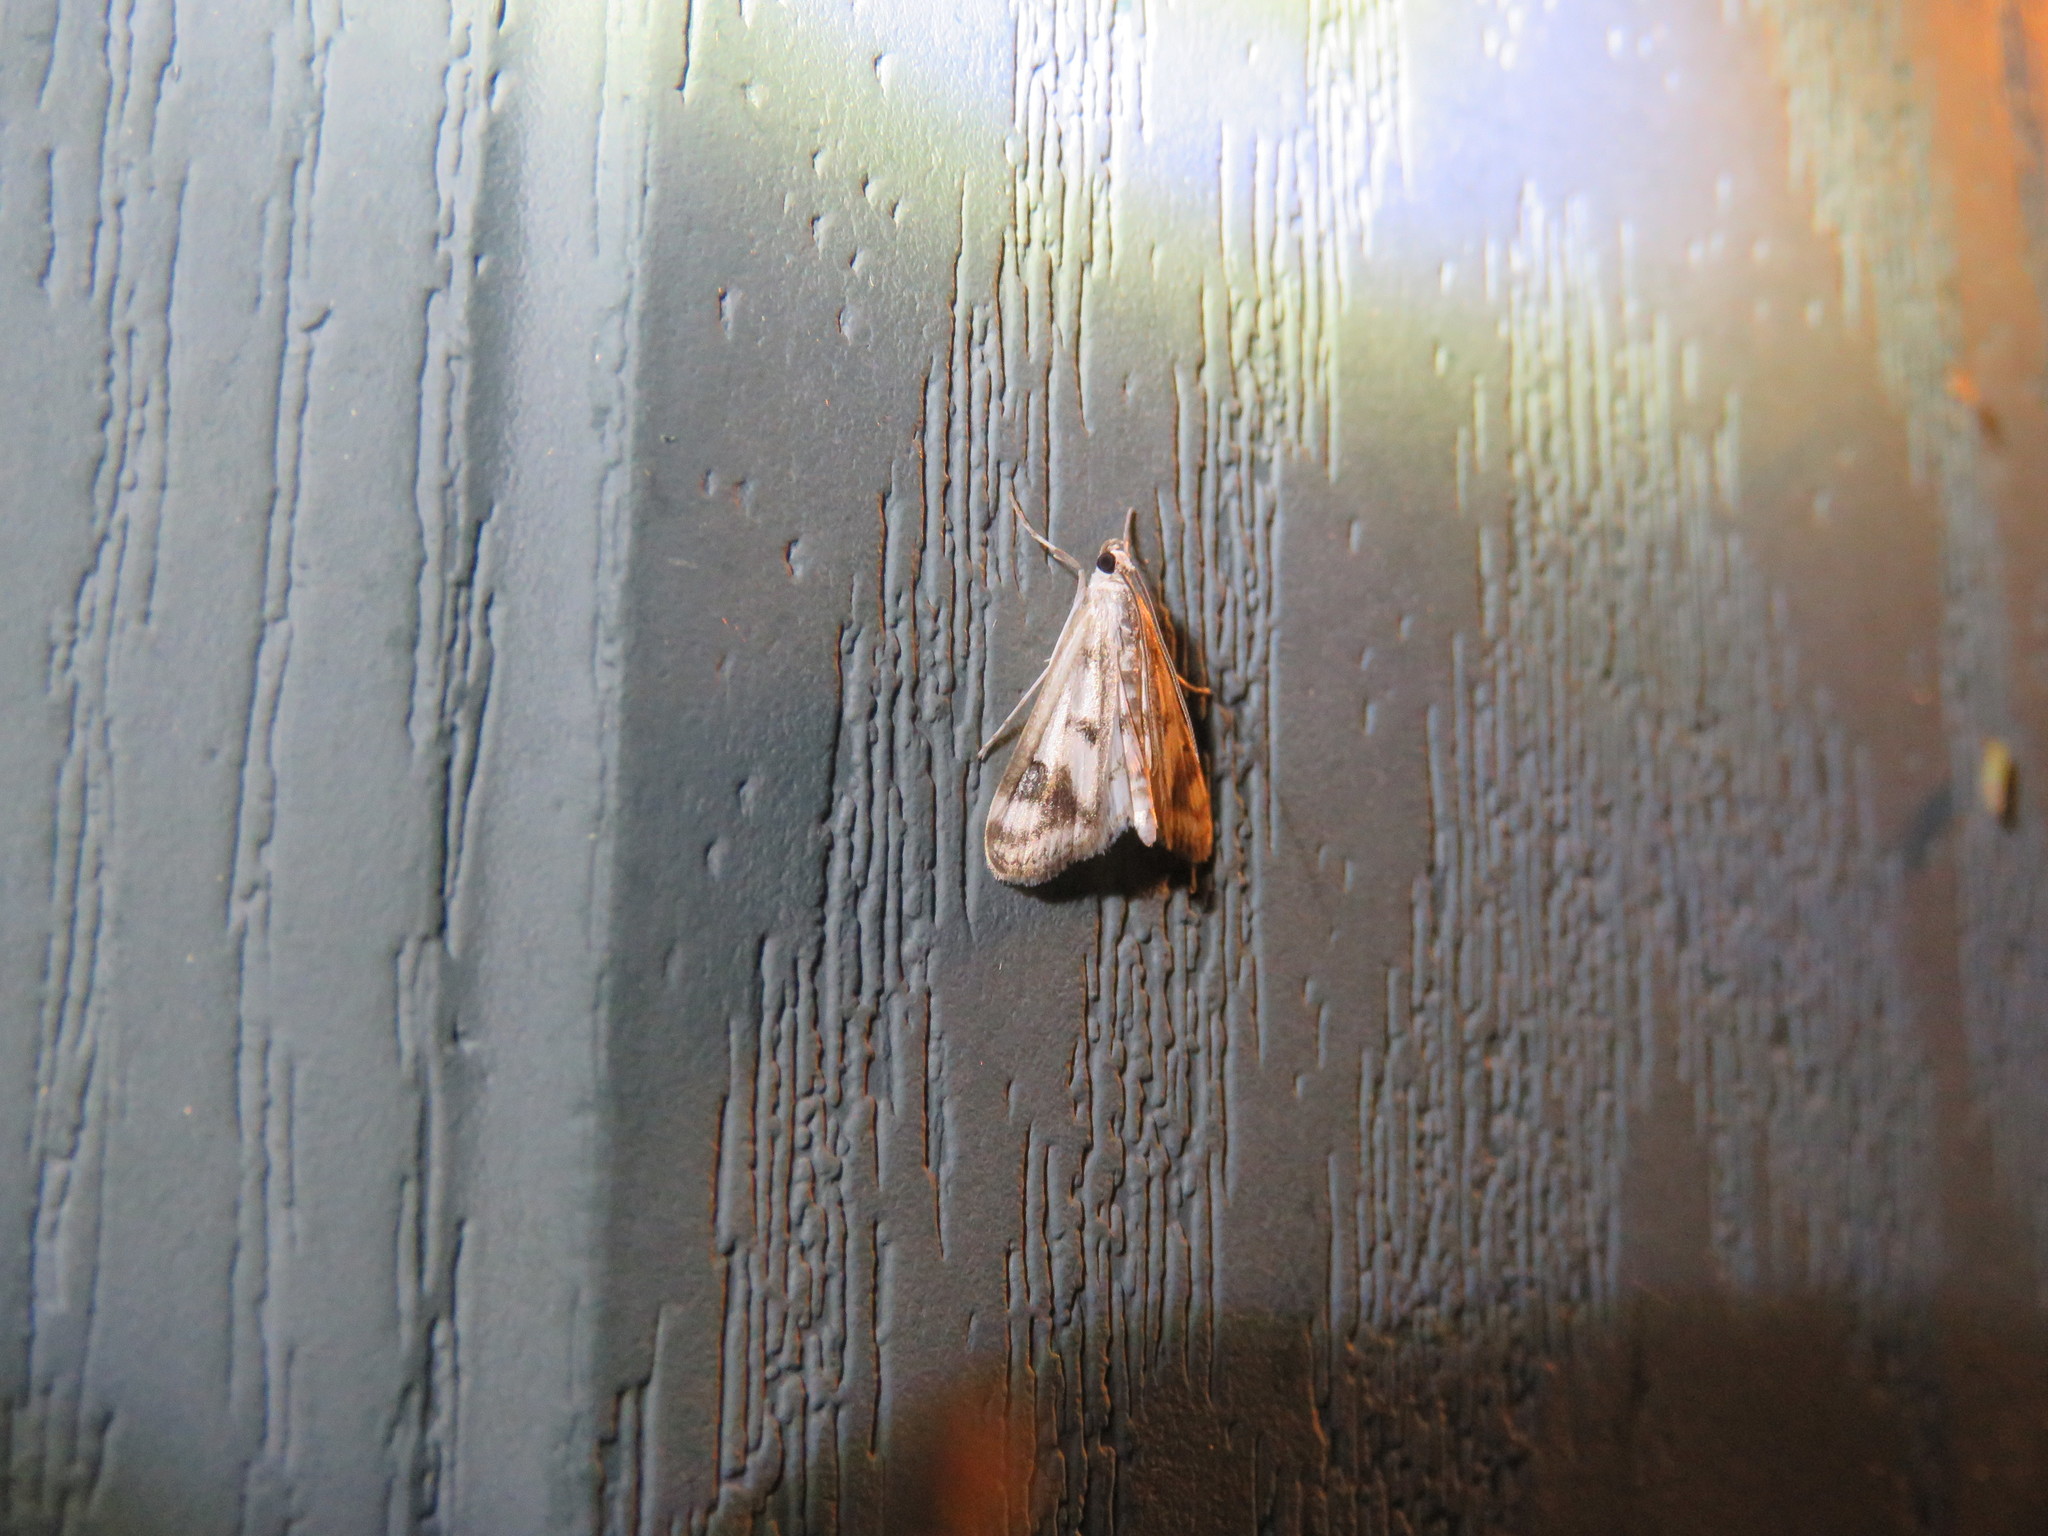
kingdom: Animalia
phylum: Arthropoda
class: Insecta
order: Lepidoptera
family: Crambidae
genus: Parapoynx
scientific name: Parapoynx maculalis
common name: Polymorphic pondweed moth
